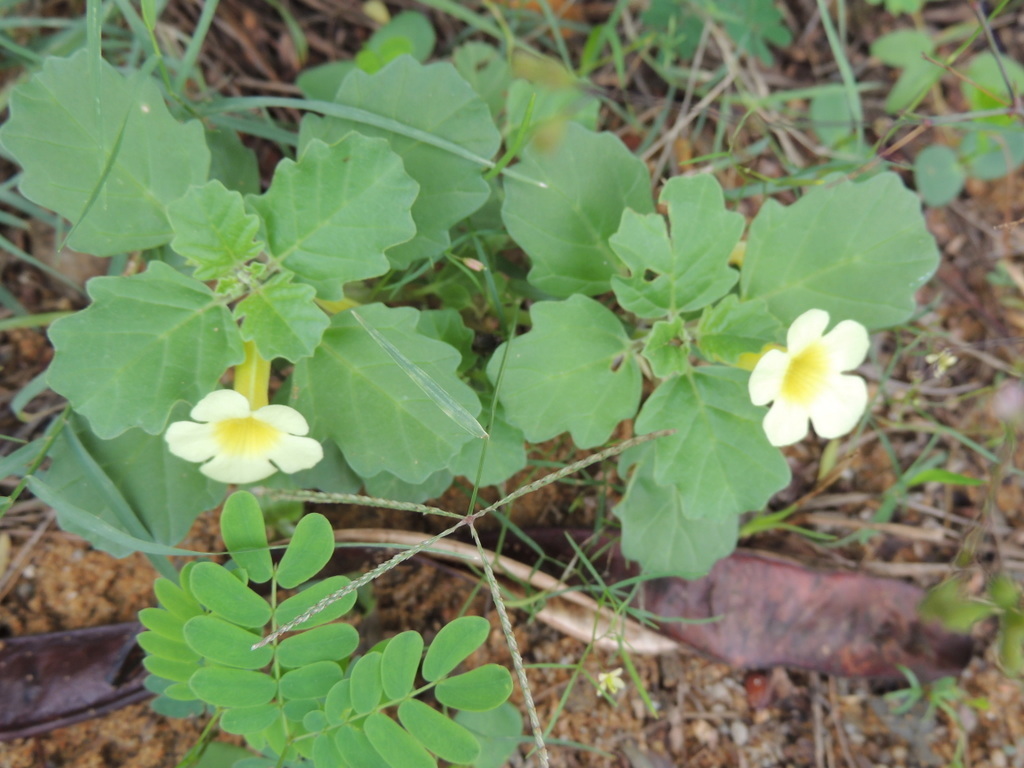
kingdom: Plantae
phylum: Tracheophyta
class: Magnoliopsida
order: Lamiales
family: Pedaliaceae
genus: Pedalium
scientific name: Pedalium murex
